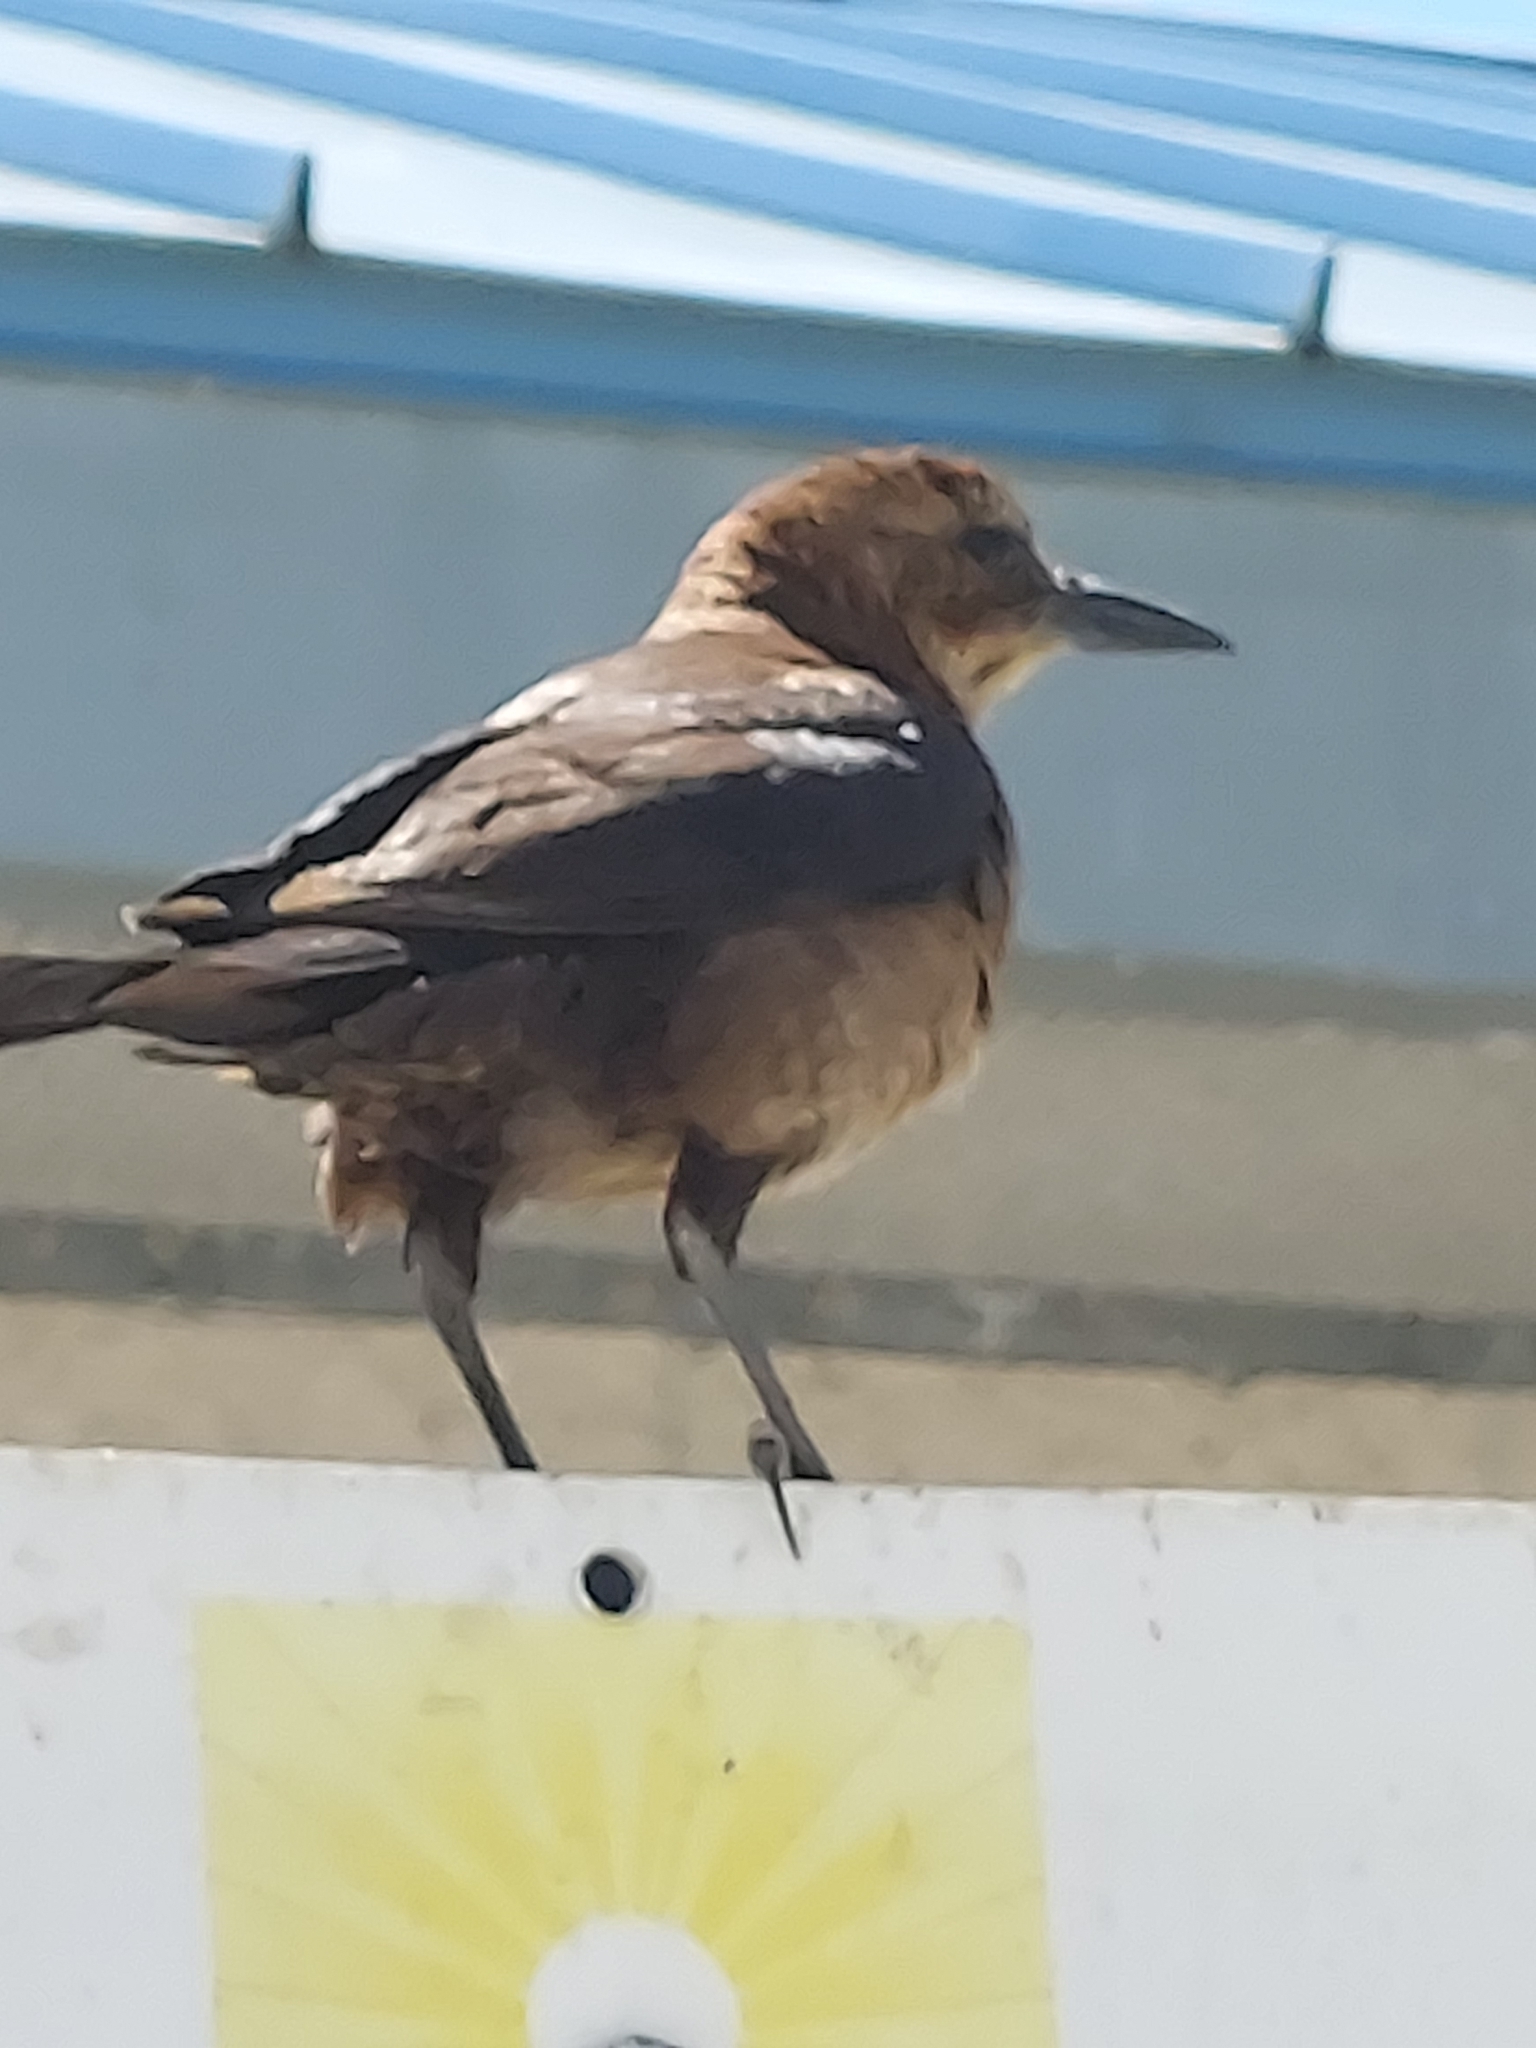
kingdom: Animalia
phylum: Chordata
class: Aves
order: Passeriformes
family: Icteridae
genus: Quiscalus
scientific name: Quiscalus major
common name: Boat-tailed grackle
